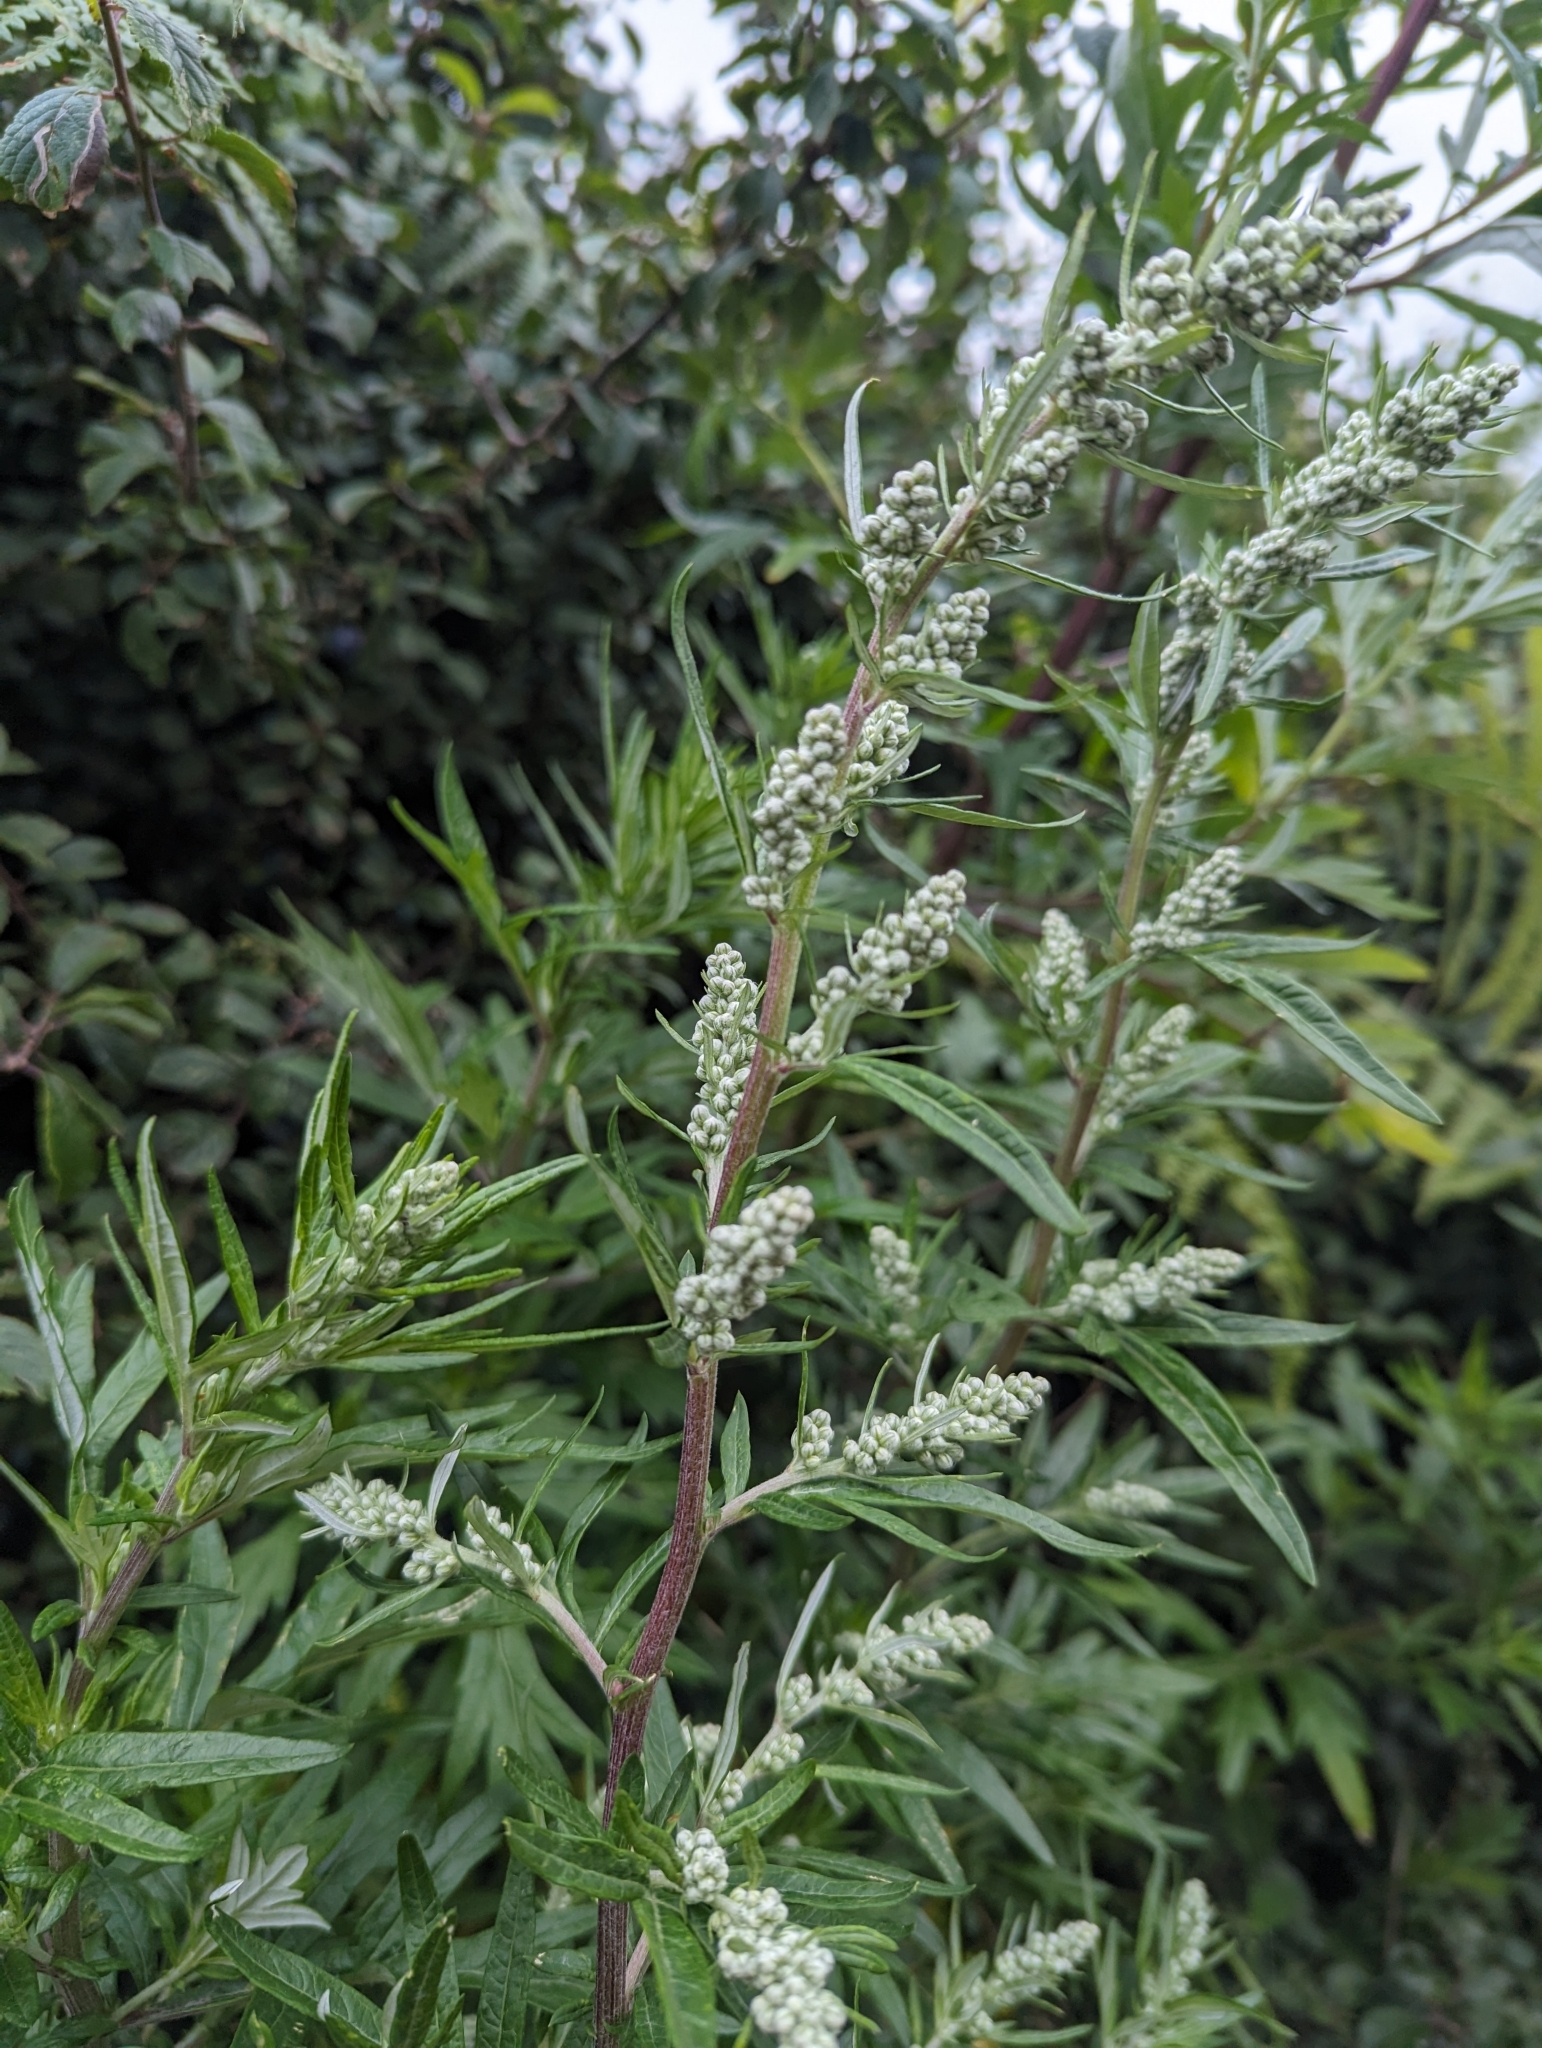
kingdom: Plantae
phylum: Tracheophyta
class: Magnoliopsida
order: Asterales
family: Asteraceae
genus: Artemisia
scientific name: Artemisia vulgaris
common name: Mugwort
